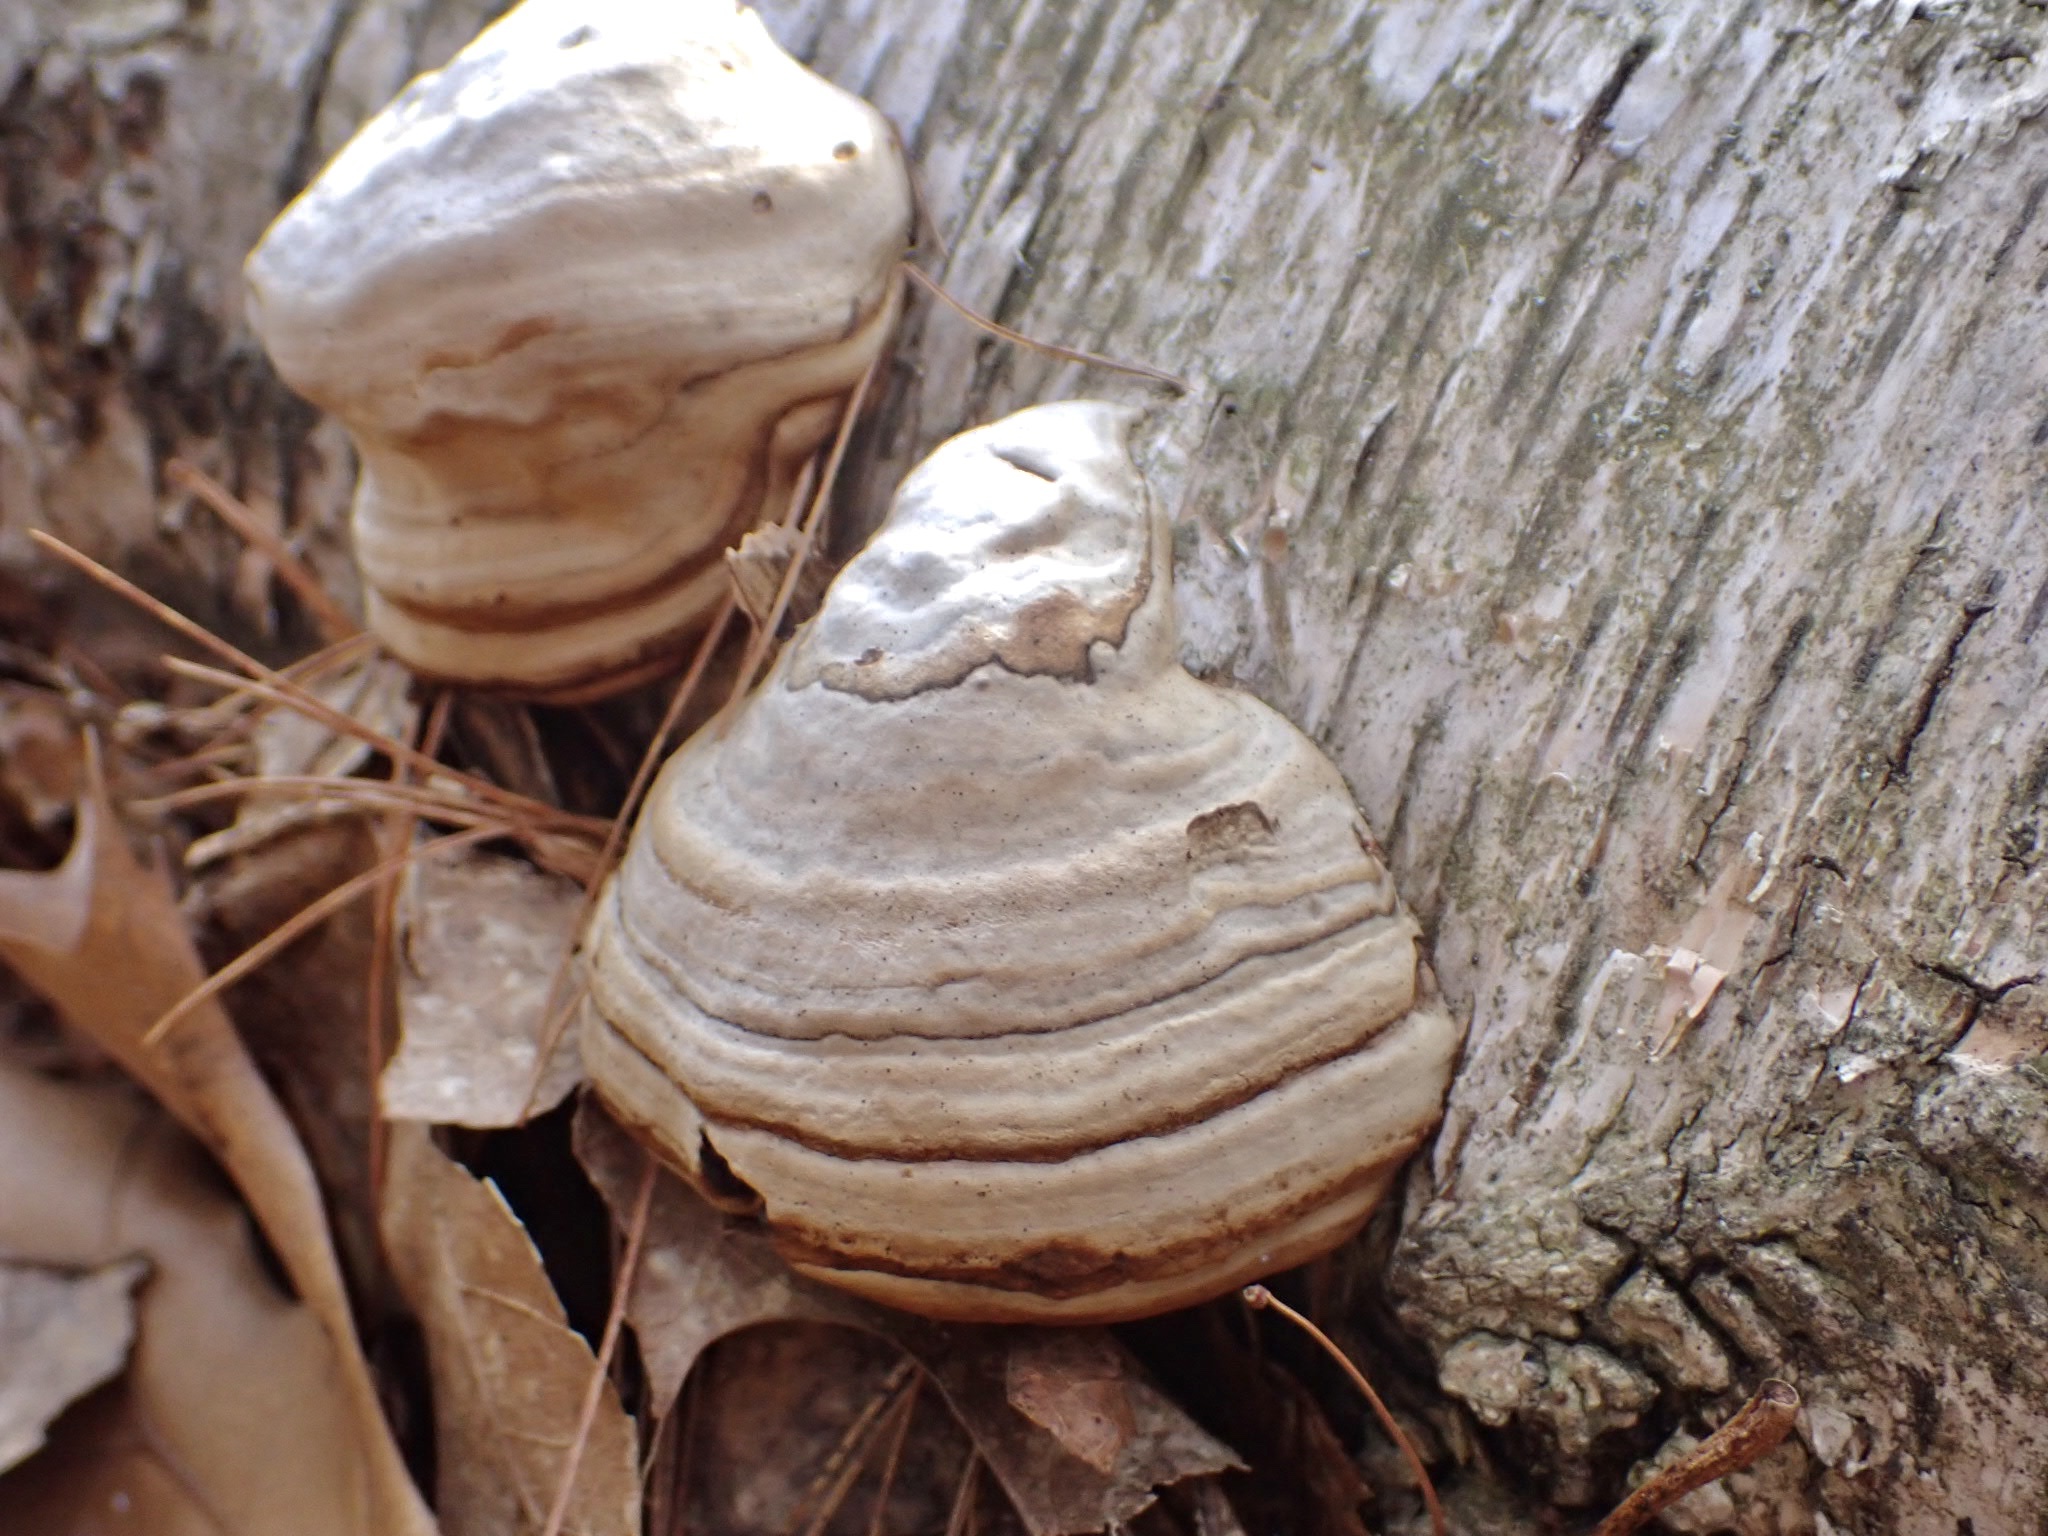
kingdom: Fungi
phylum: Basidiomycota
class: Agaricomycetes
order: Polyporales
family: Polyporaceae
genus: Fomes
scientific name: Fomes fomentarius
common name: Hoof fungus
